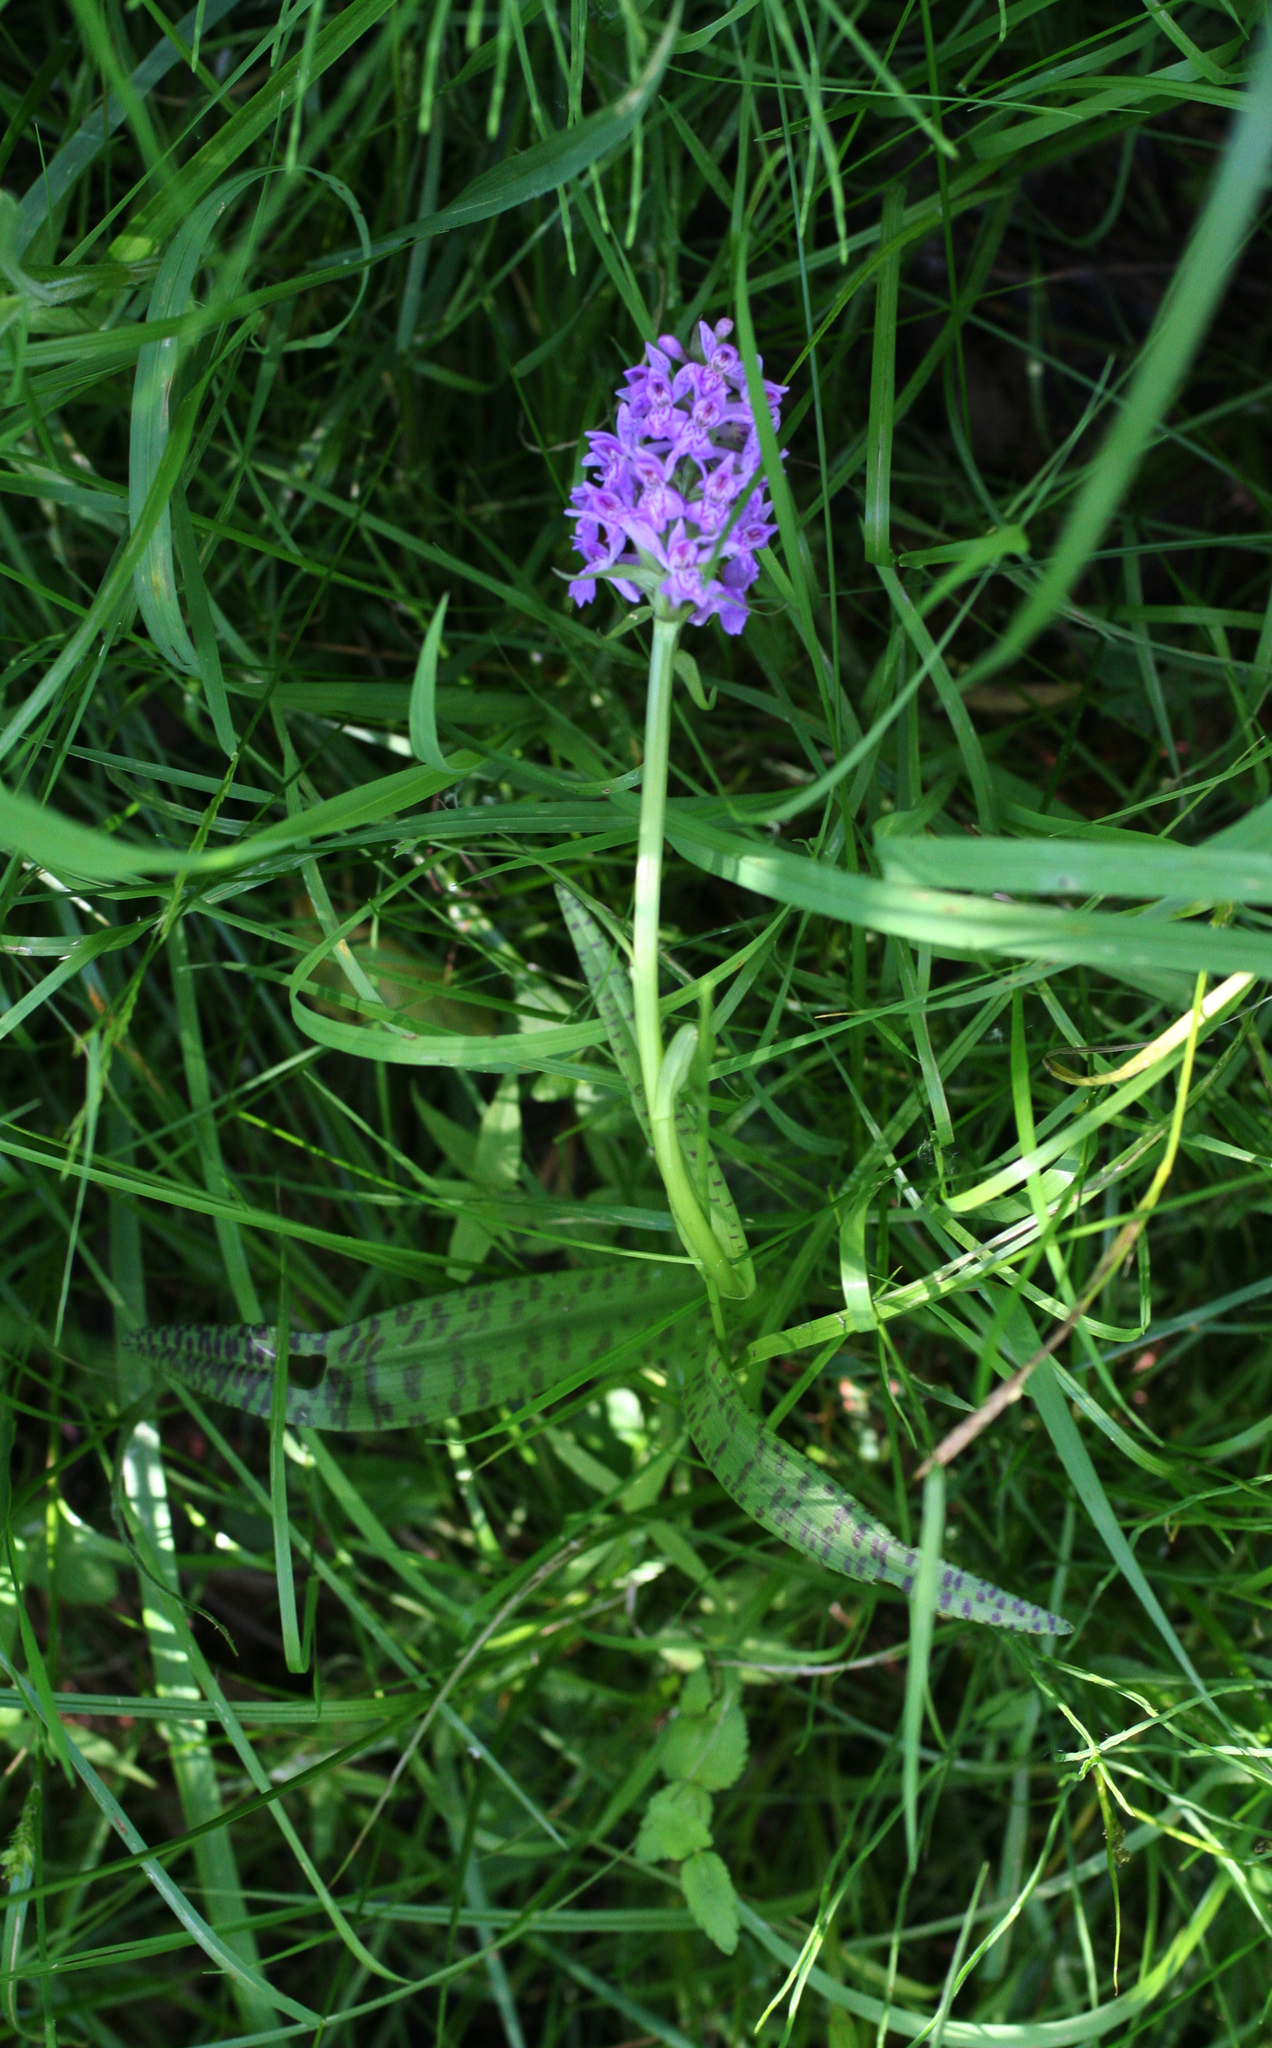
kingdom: Plantae
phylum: Tracheophyta
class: Liliopsida
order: Asparagales
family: Orchidaceae
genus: Dactylorhiza
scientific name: Dactylorhiza majalis
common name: Marsh orchid
